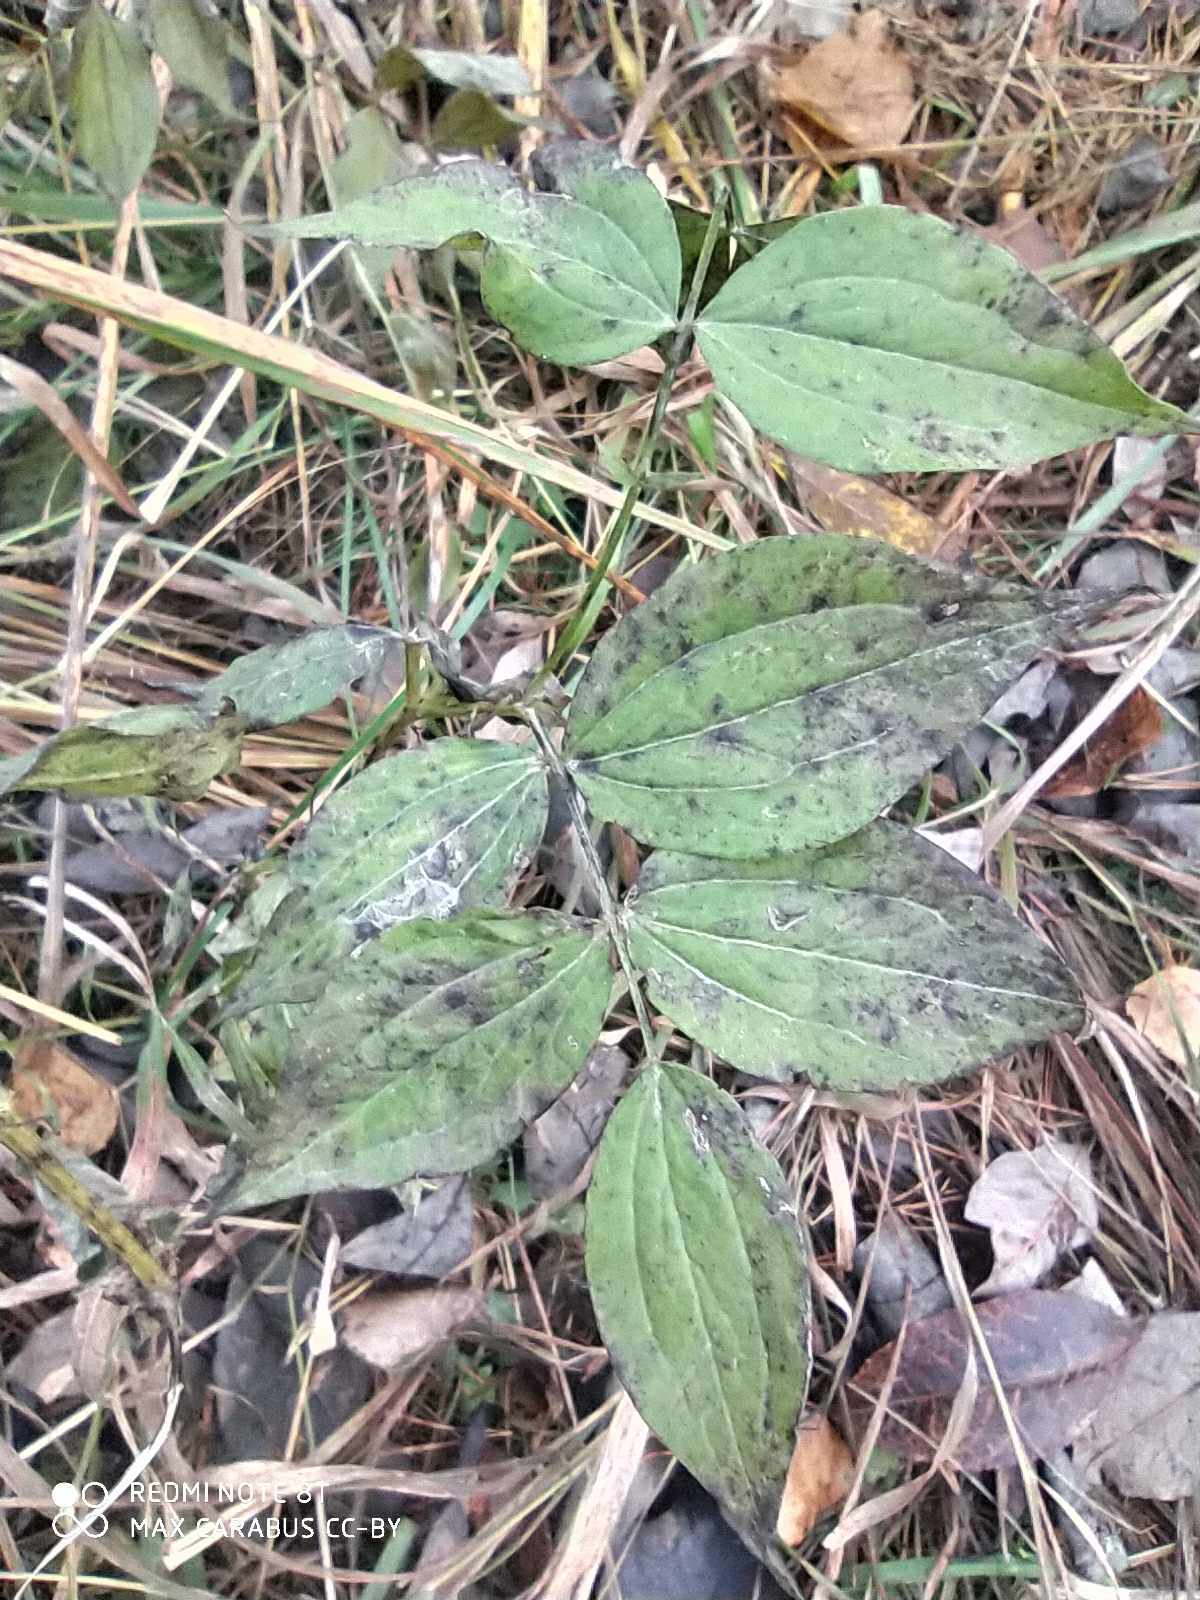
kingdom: Plantae
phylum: Tracheophyta
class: Magnoliopsida
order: Fabales
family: Fabaceae
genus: Lathyrus
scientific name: Lathyrus vernus
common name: Spring pea
